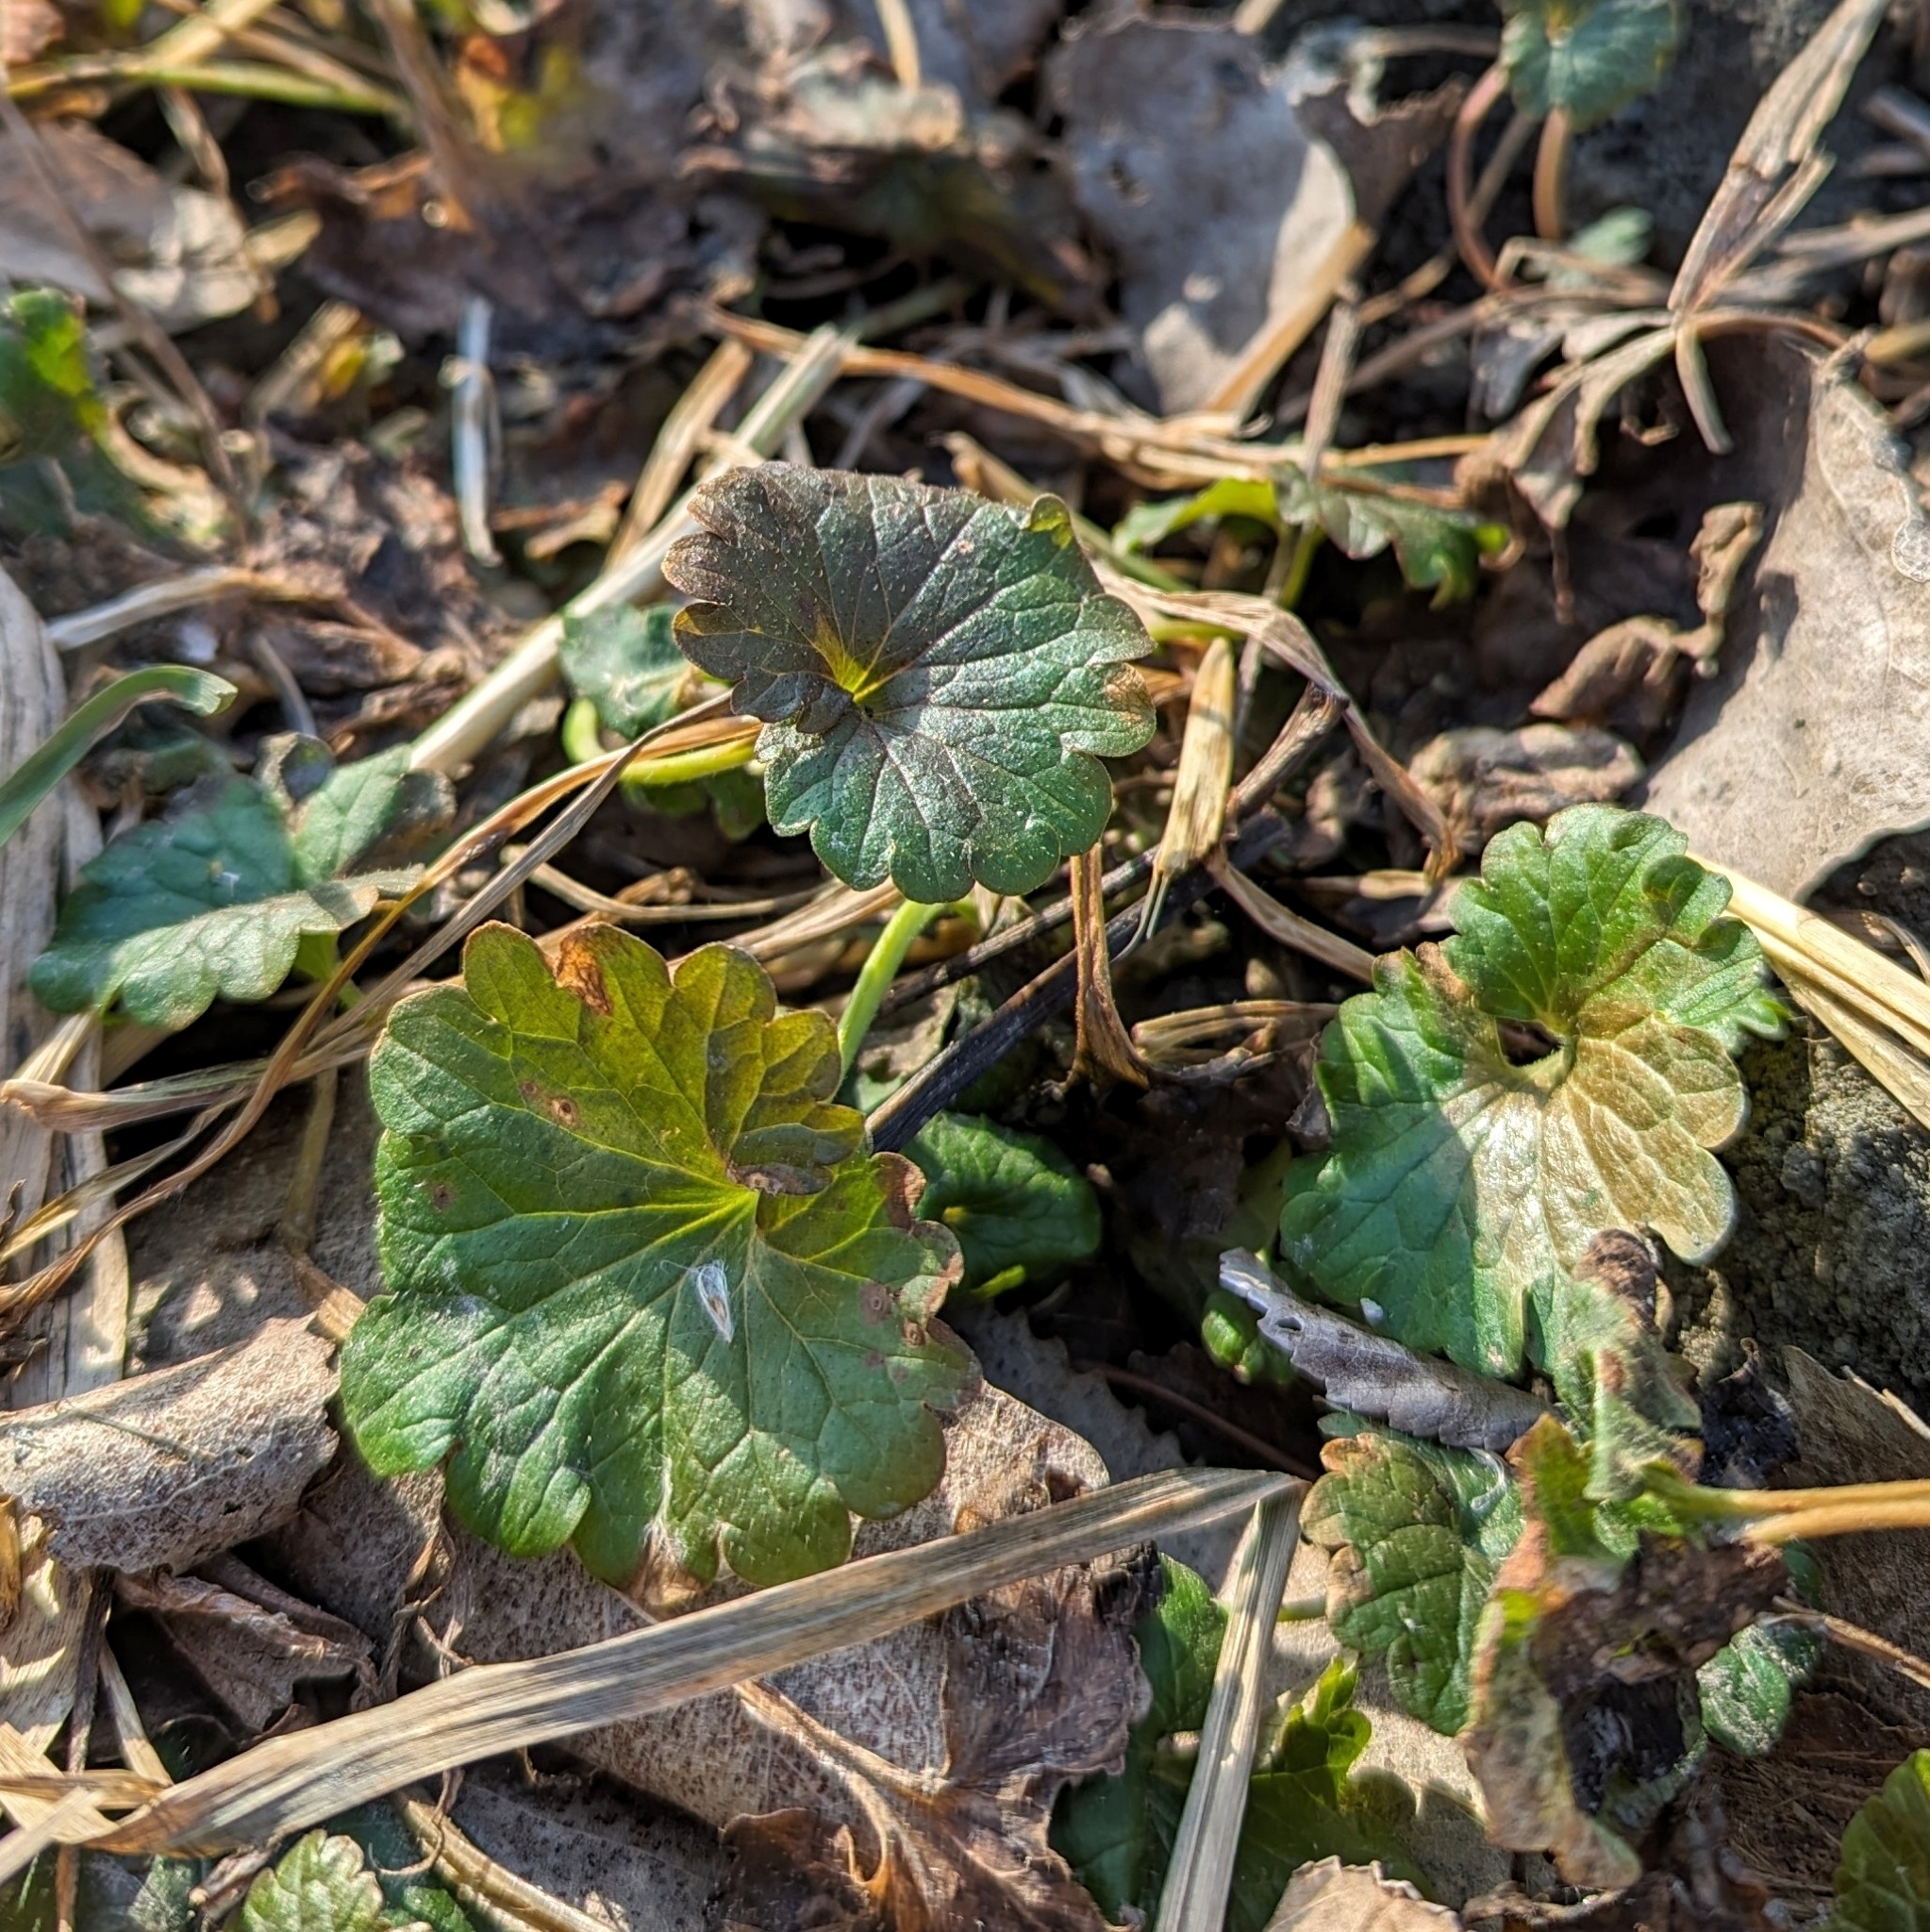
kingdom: Plantae
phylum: Tracheophyta
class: Magnoliopsida
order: Lamiales
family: Lamiaceae
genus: Glechoma
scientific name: Glechoma hederacea
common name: Ground ivy
